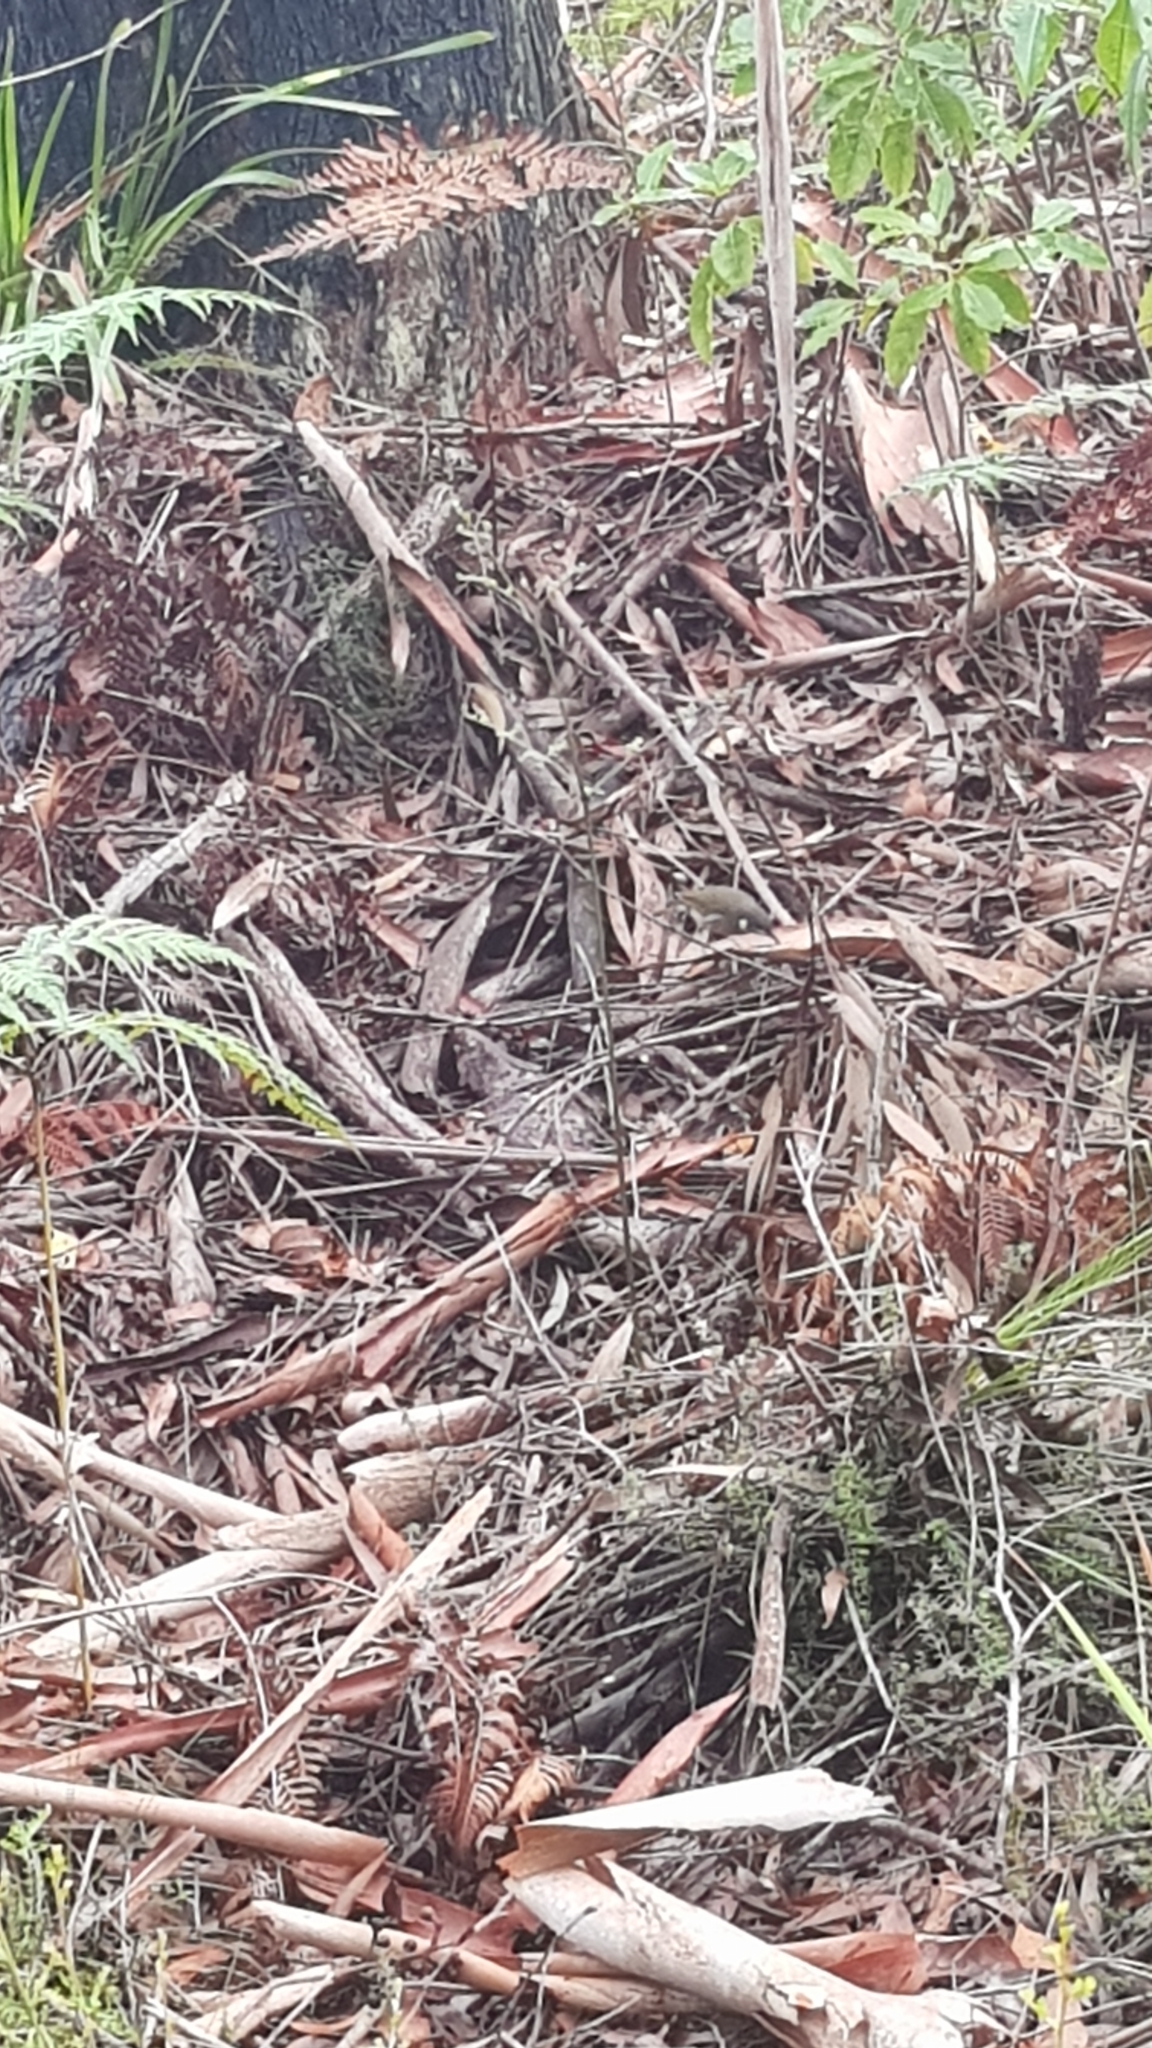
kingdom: Animalia
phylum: Chordata
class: Aves
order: Passeriformes
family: Meliphagidae
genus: Meliphaga
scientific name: Meliphaga lewinii
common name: Lewin's honeyeater
